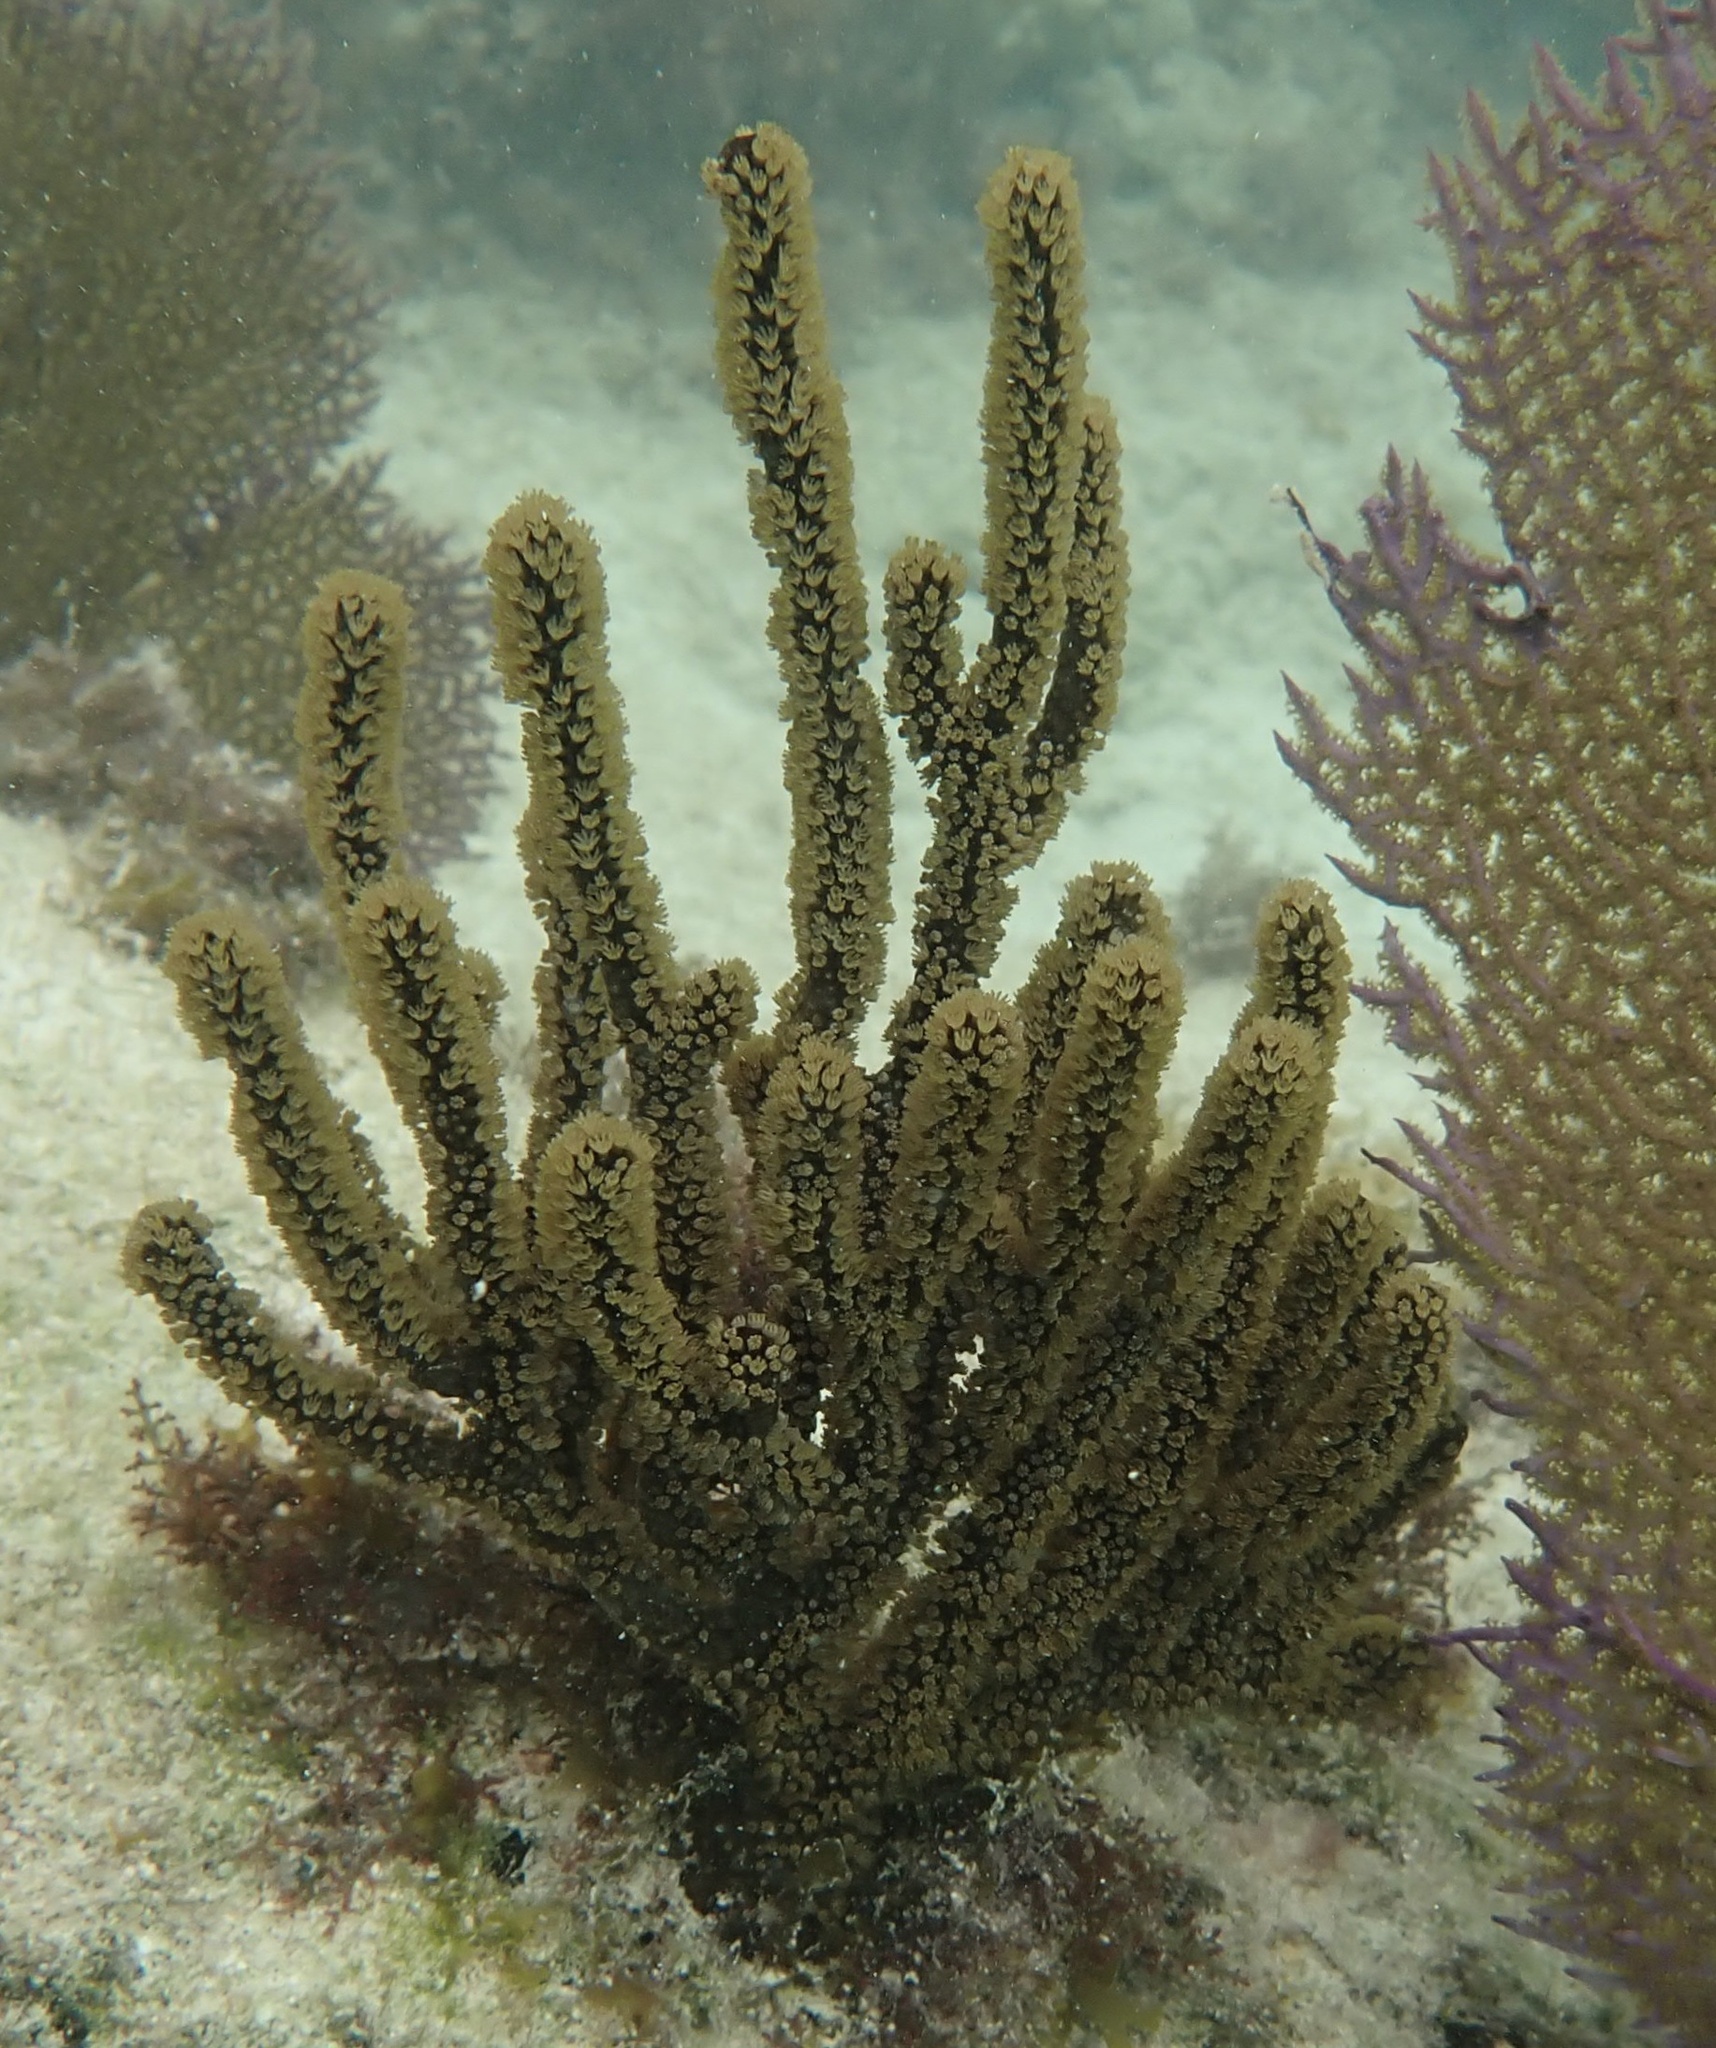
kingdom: Animalia
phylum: Cnidaria
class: Anthozoa
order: Malacalcyonacea
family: Plexauridae
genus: Plexaura
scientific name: Plexaura homomalla
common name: Black sea rod
